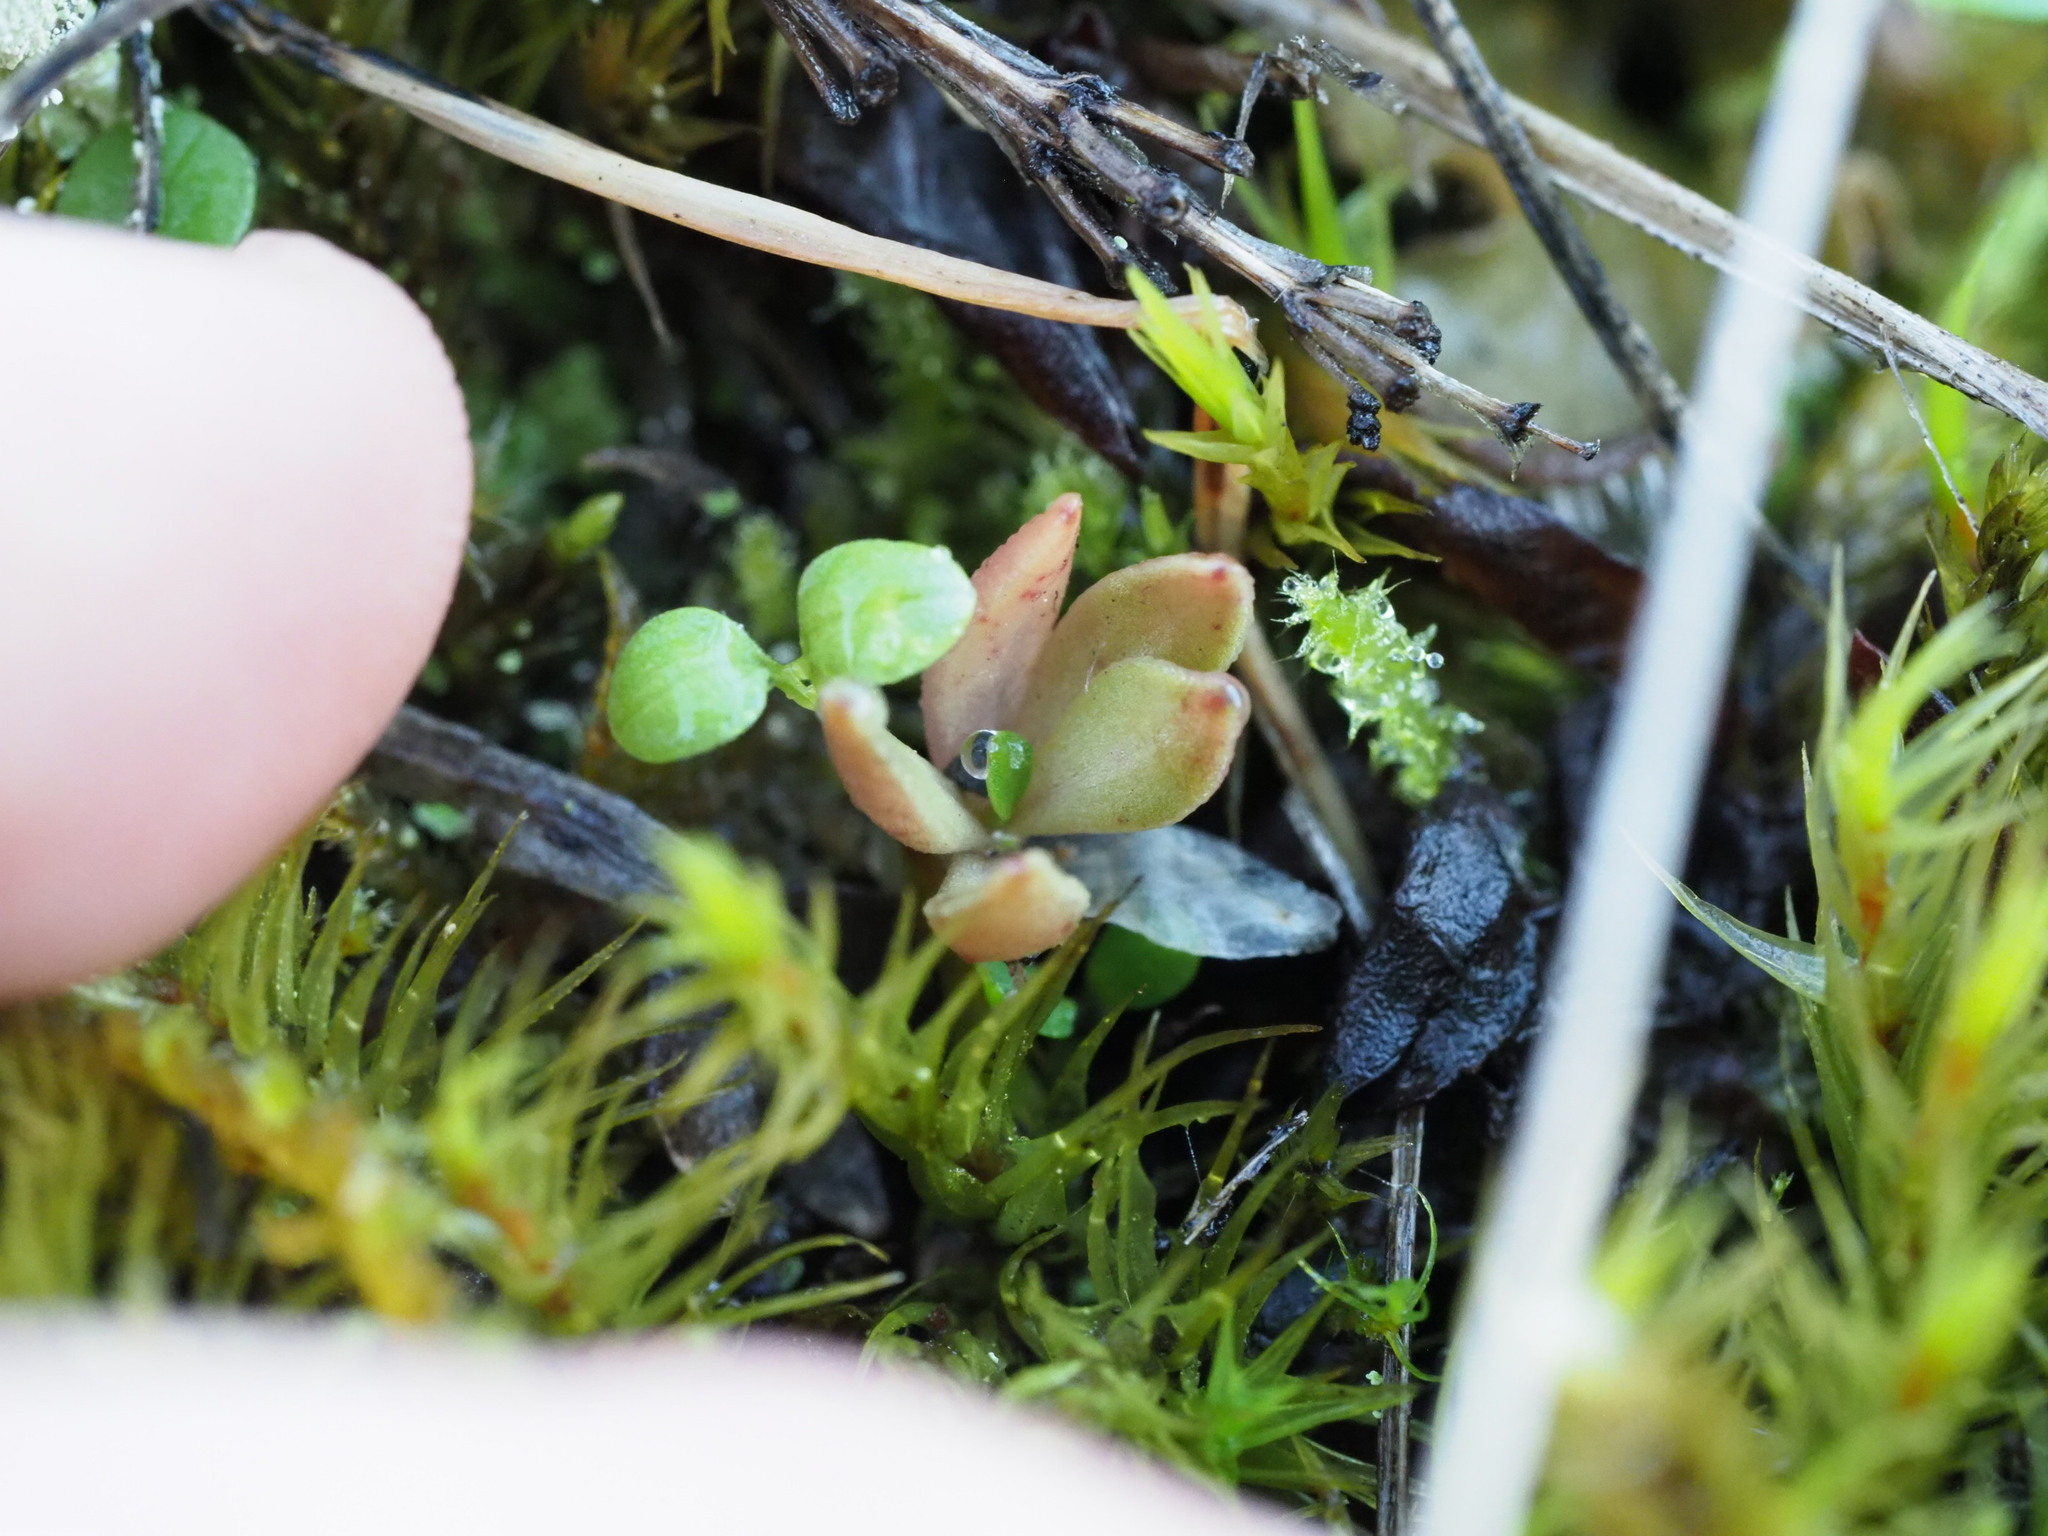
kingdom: Plantae
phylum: Tracheophyta
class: Magnoliopsida
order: Caryophyllales
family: Montiaceae
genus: Montia
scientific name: Montia parvifolia
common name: Small-leaved blinks
